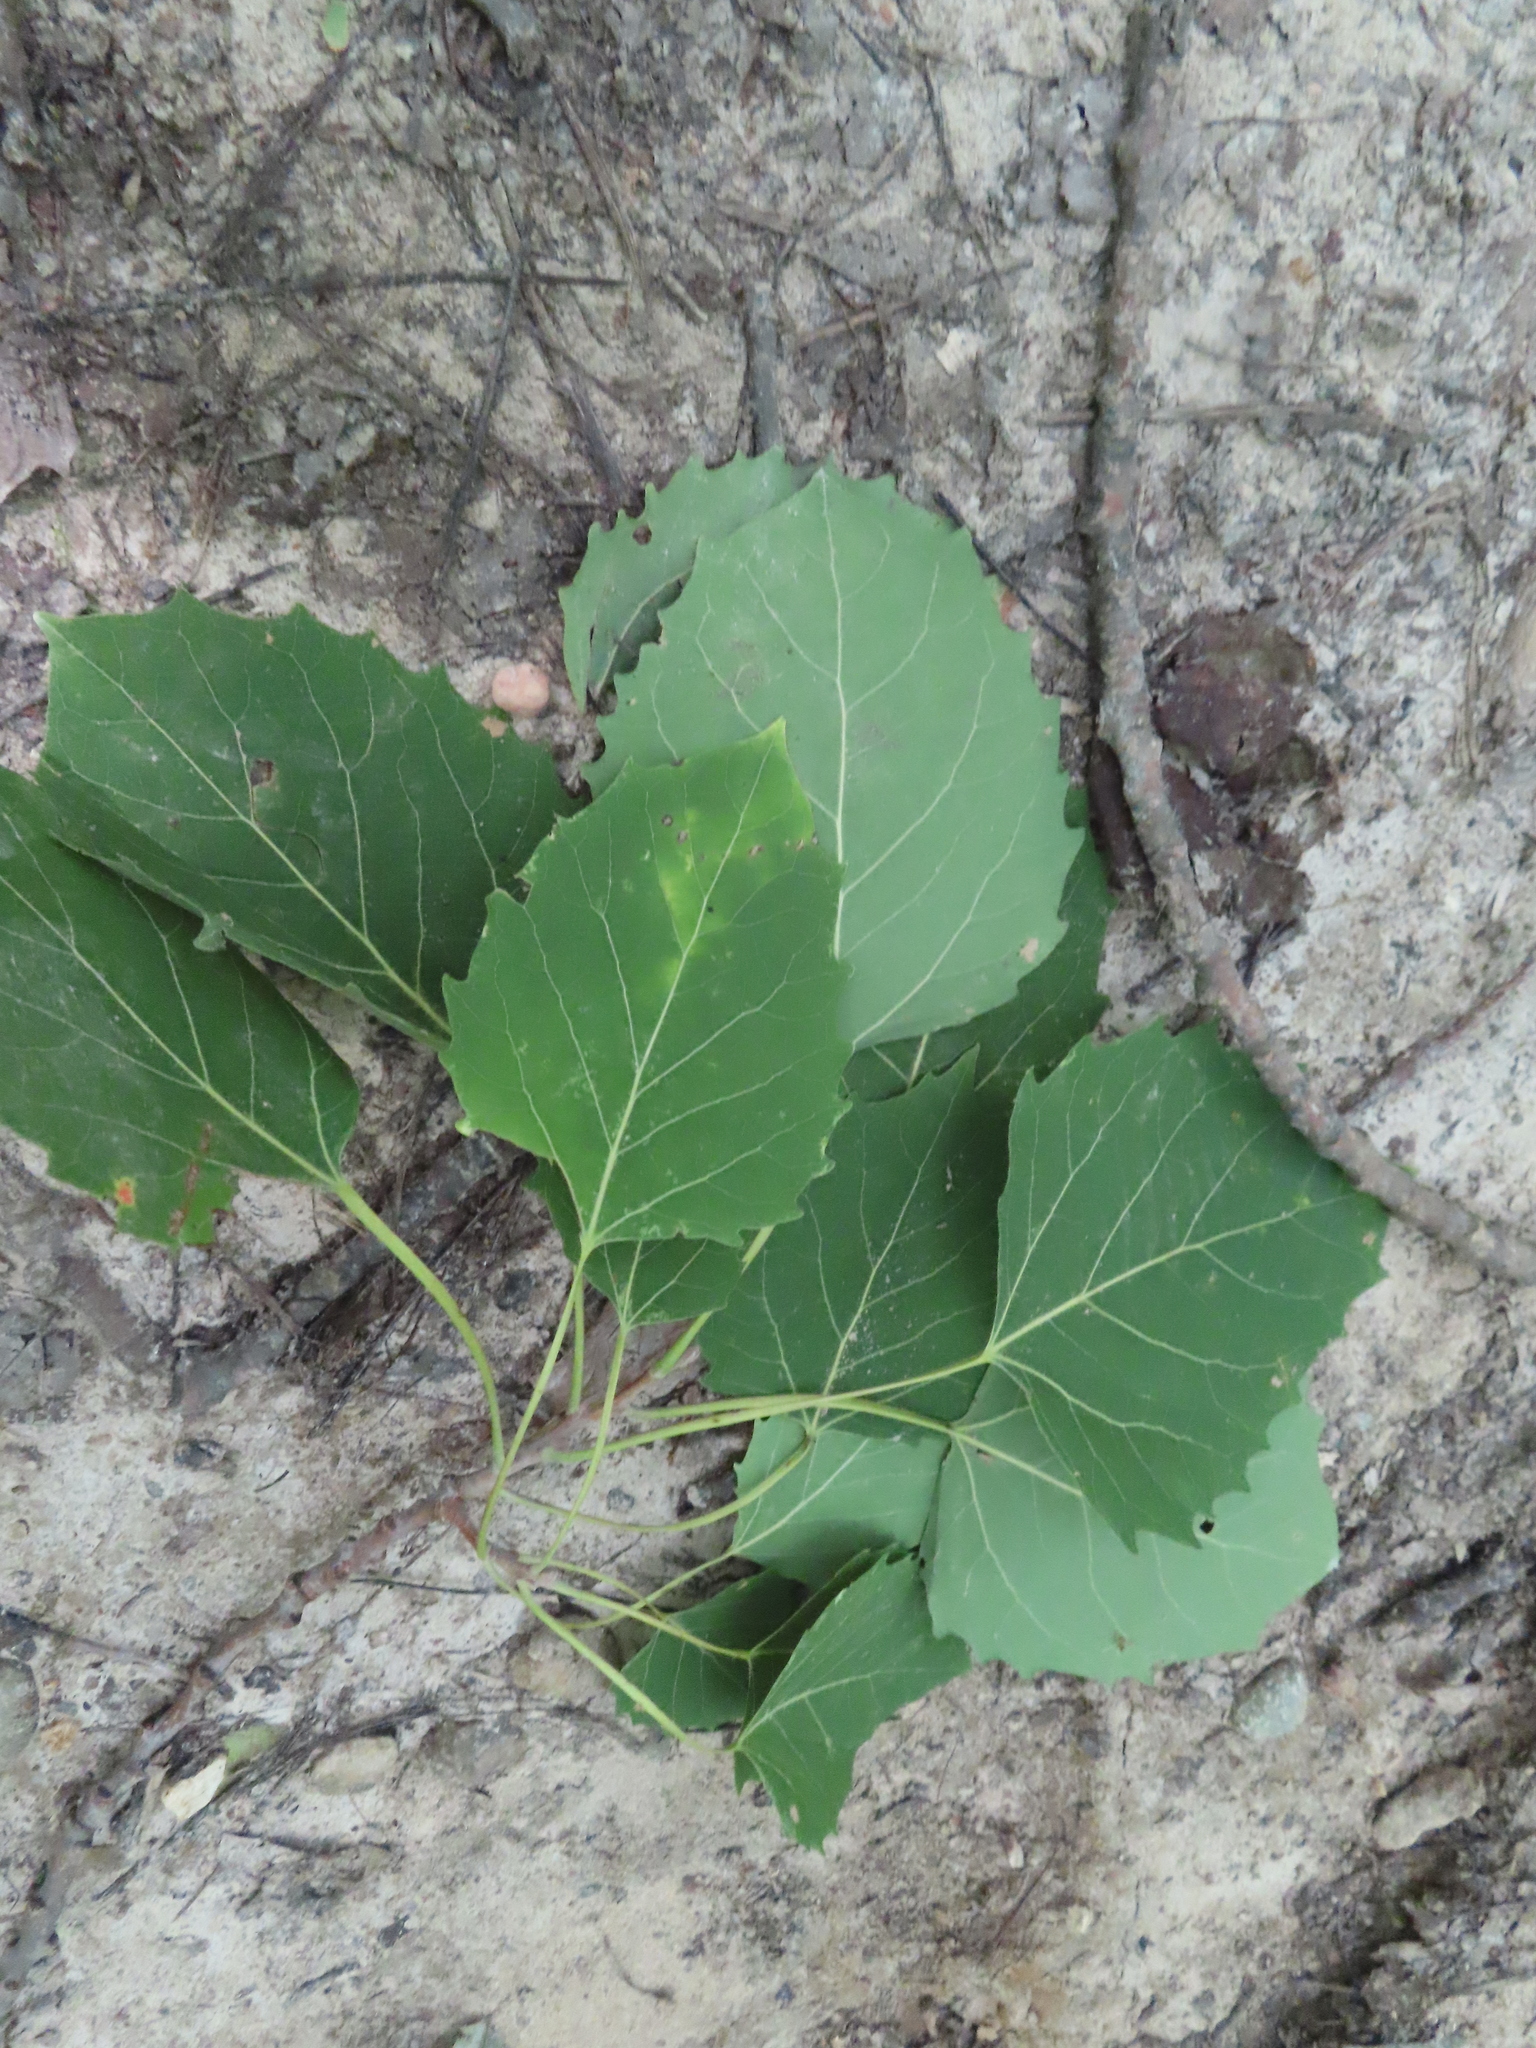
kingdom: Plantae
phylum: Tracheophyta
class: Magnoliopsida
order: Malpighiales
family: Salicaceae
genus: Populus
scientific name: Populus grandidentata
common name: Bigtooth aspen
